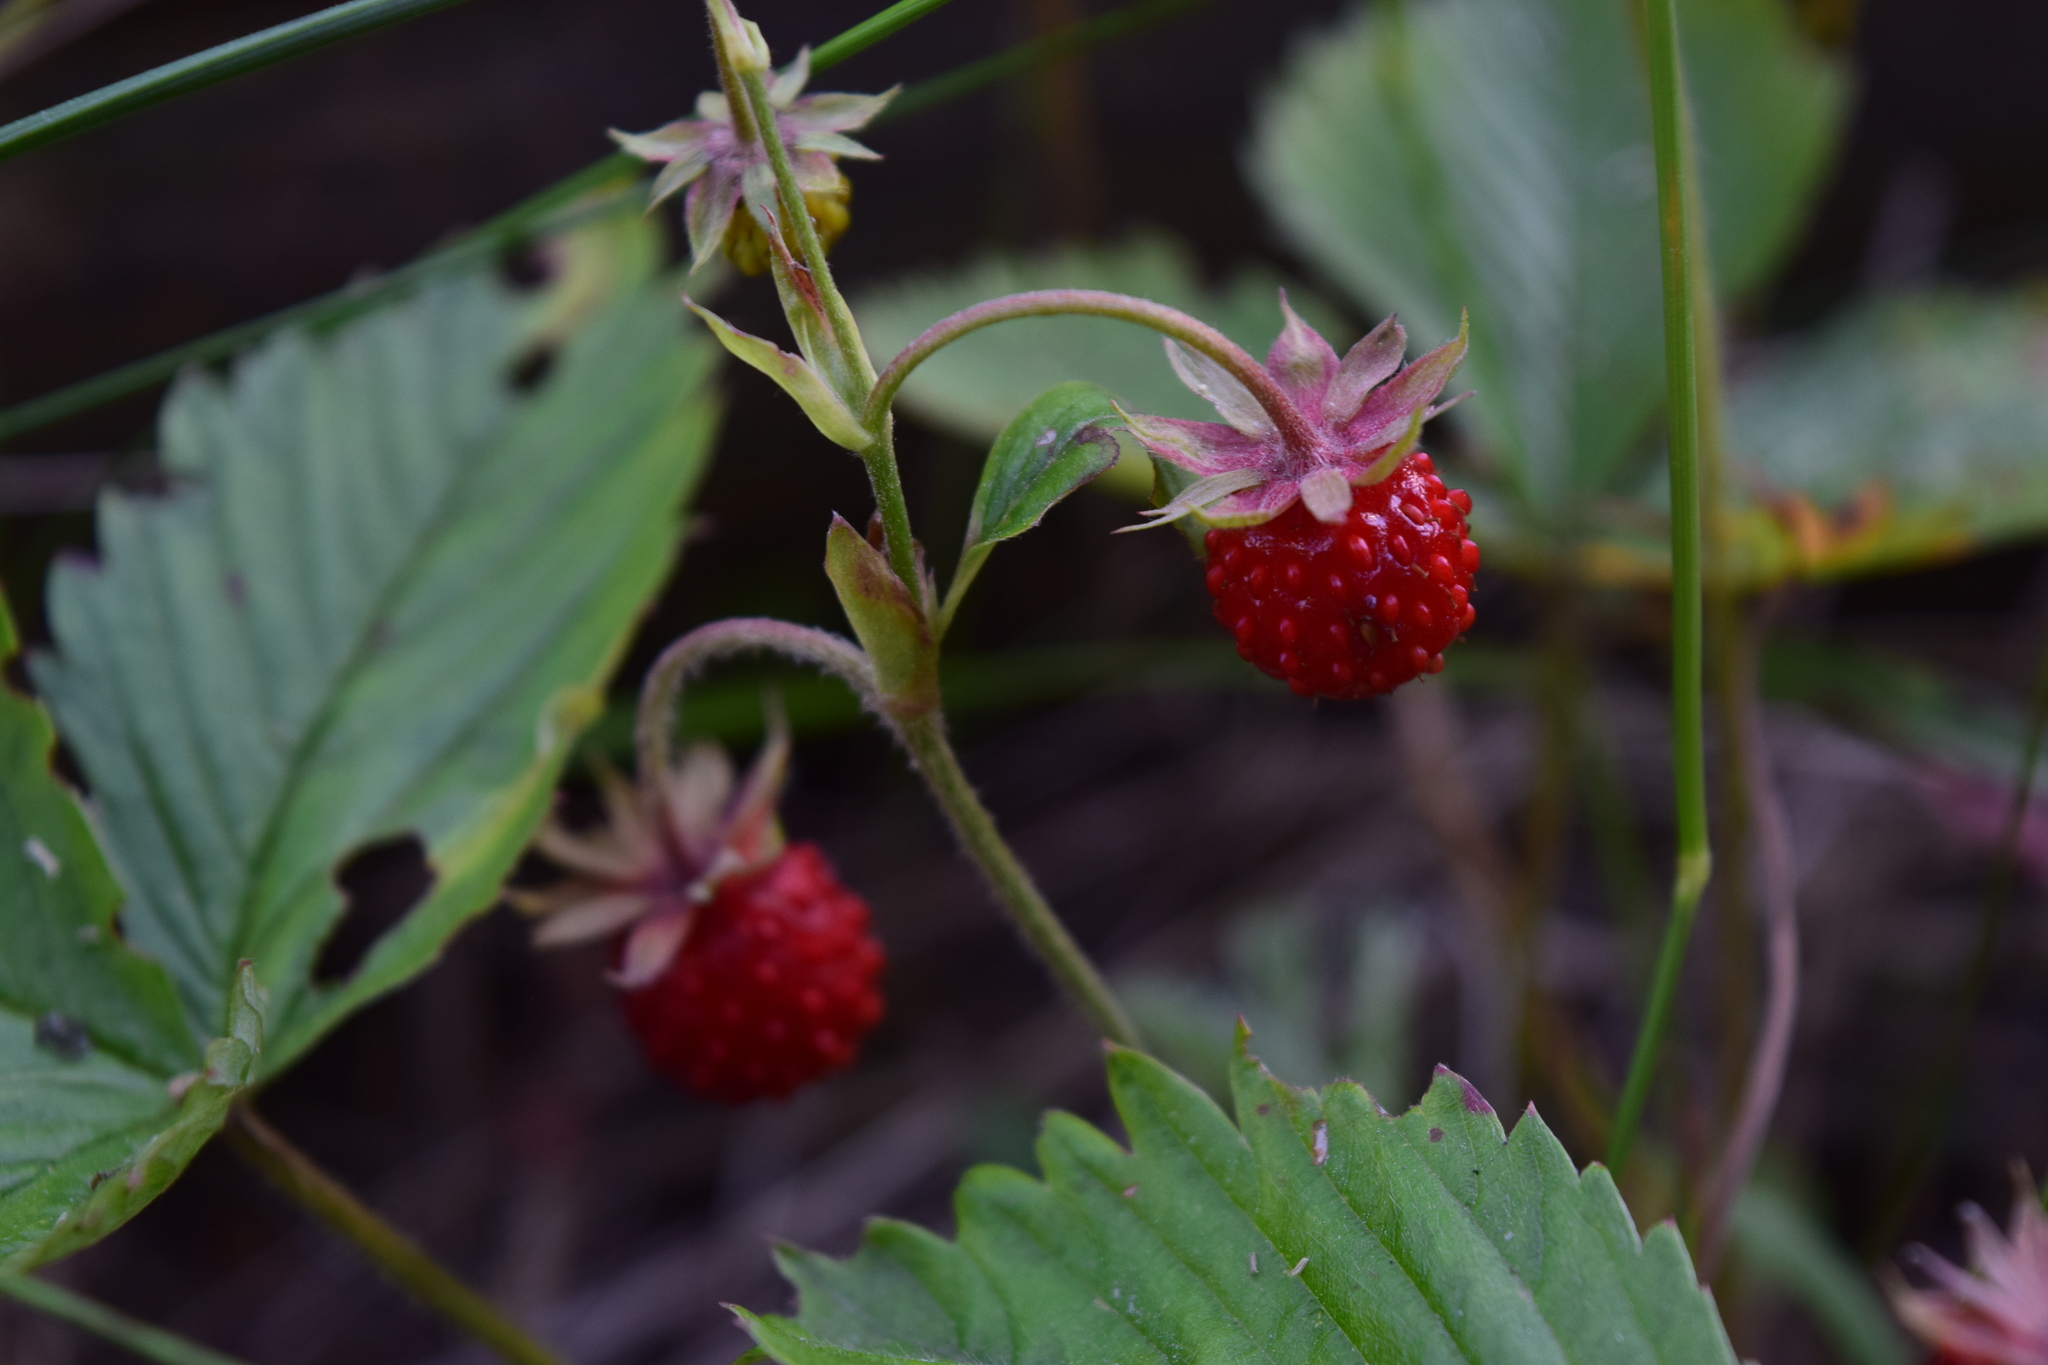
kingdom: Plantae
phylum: Tracheophyta
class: Magnoliopsida
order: Rosales
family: Rosaceae
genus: Fragaria
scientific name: Fragaria vesca
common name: Wild strawberry
